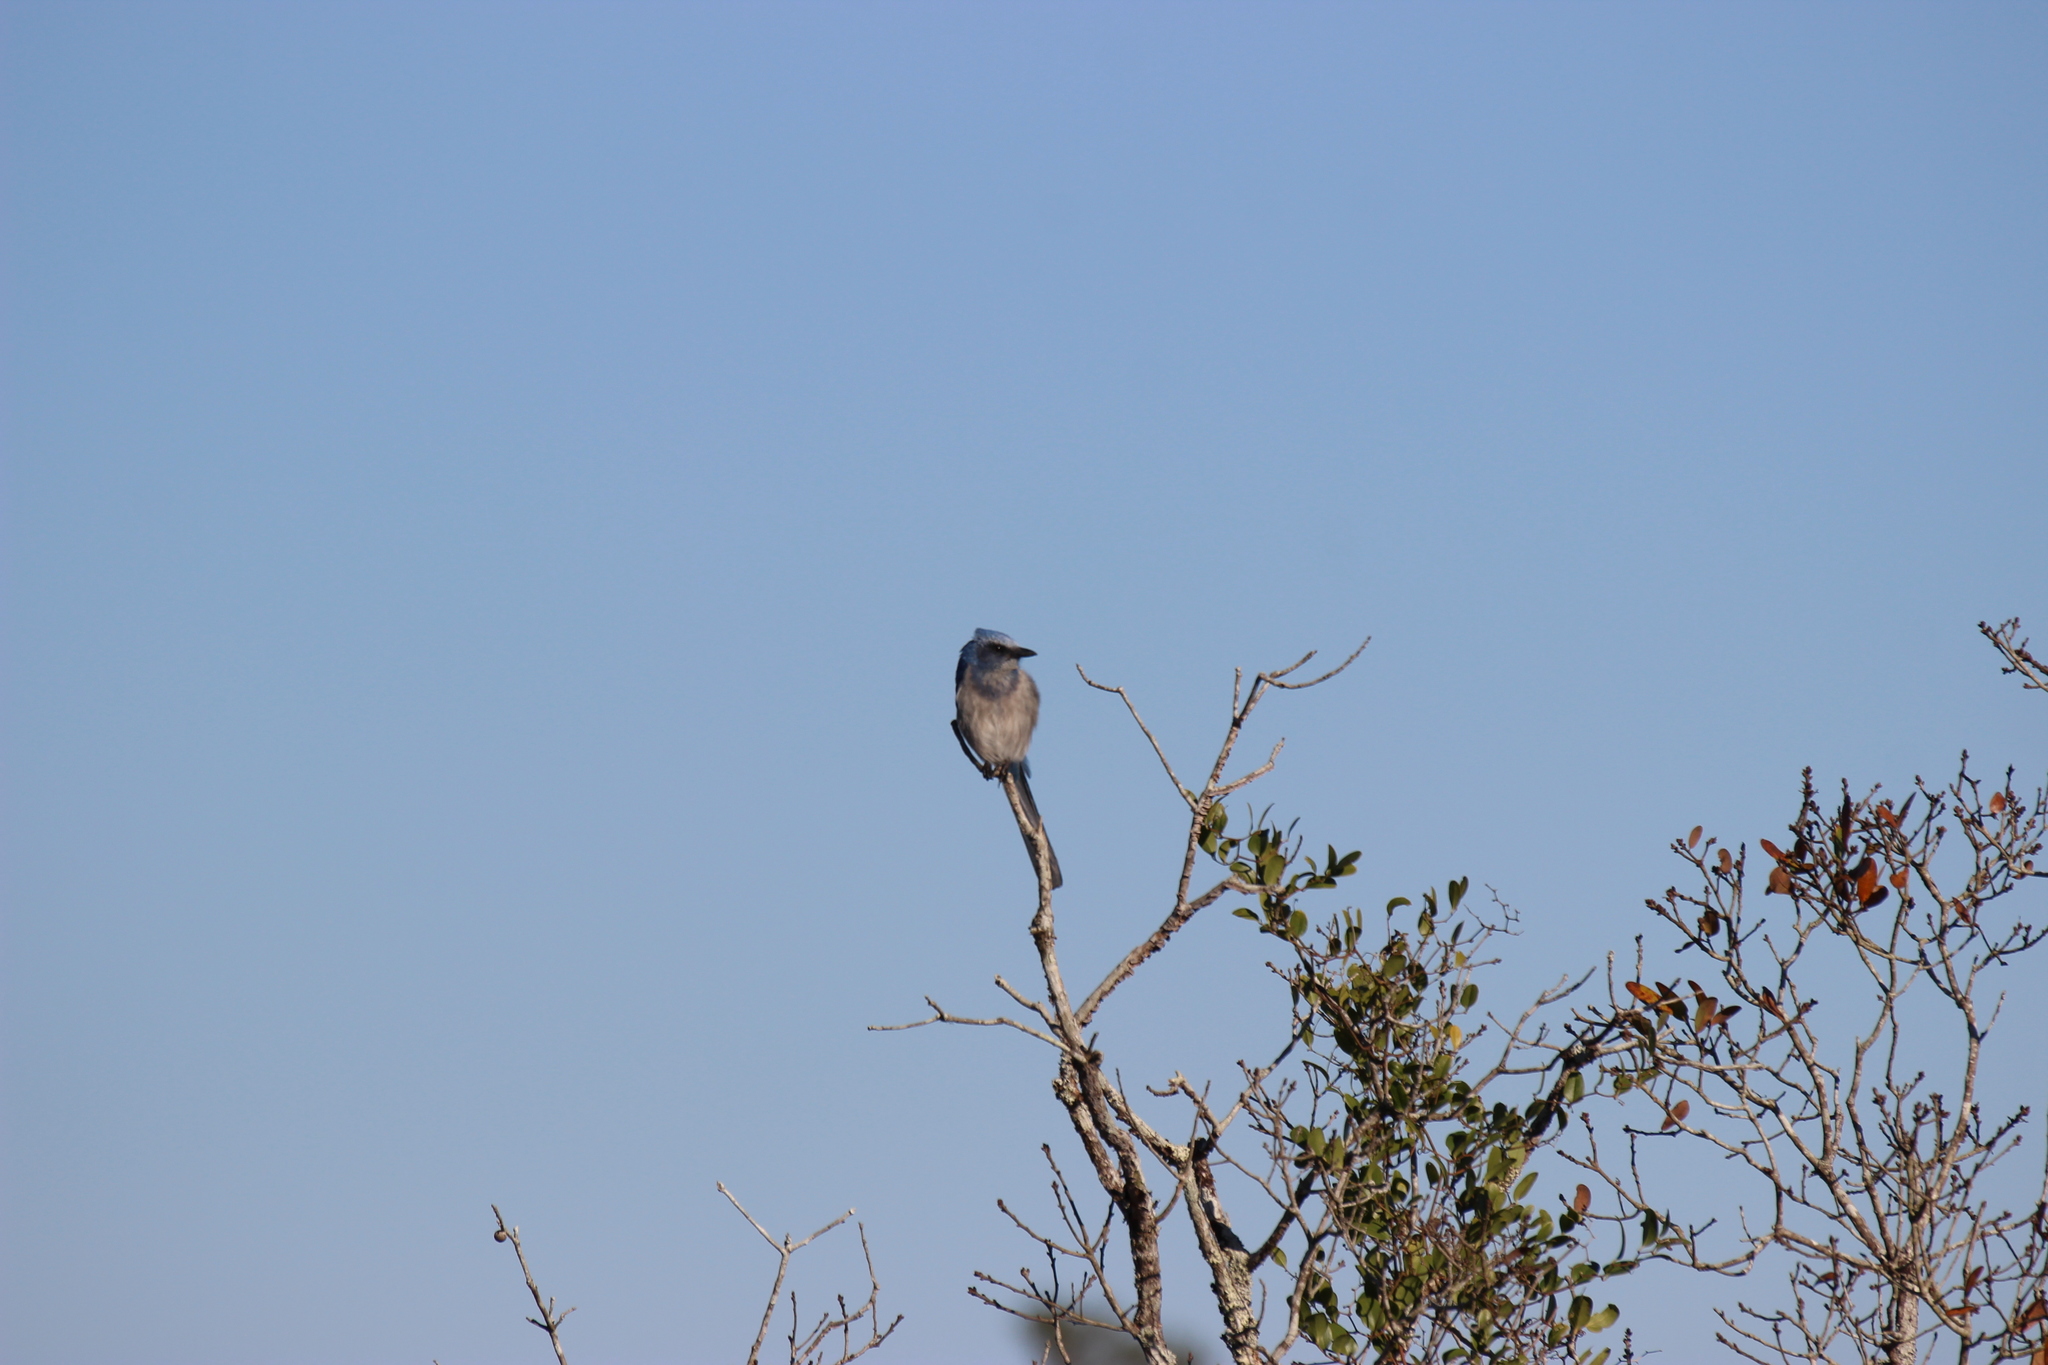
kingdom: Animalia
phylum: Chordata
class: Aves
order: Passeriformes
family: Corvidae
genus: Aphelocoma
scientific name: Aphelocoma coerulescens
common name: Florida scrub jay
